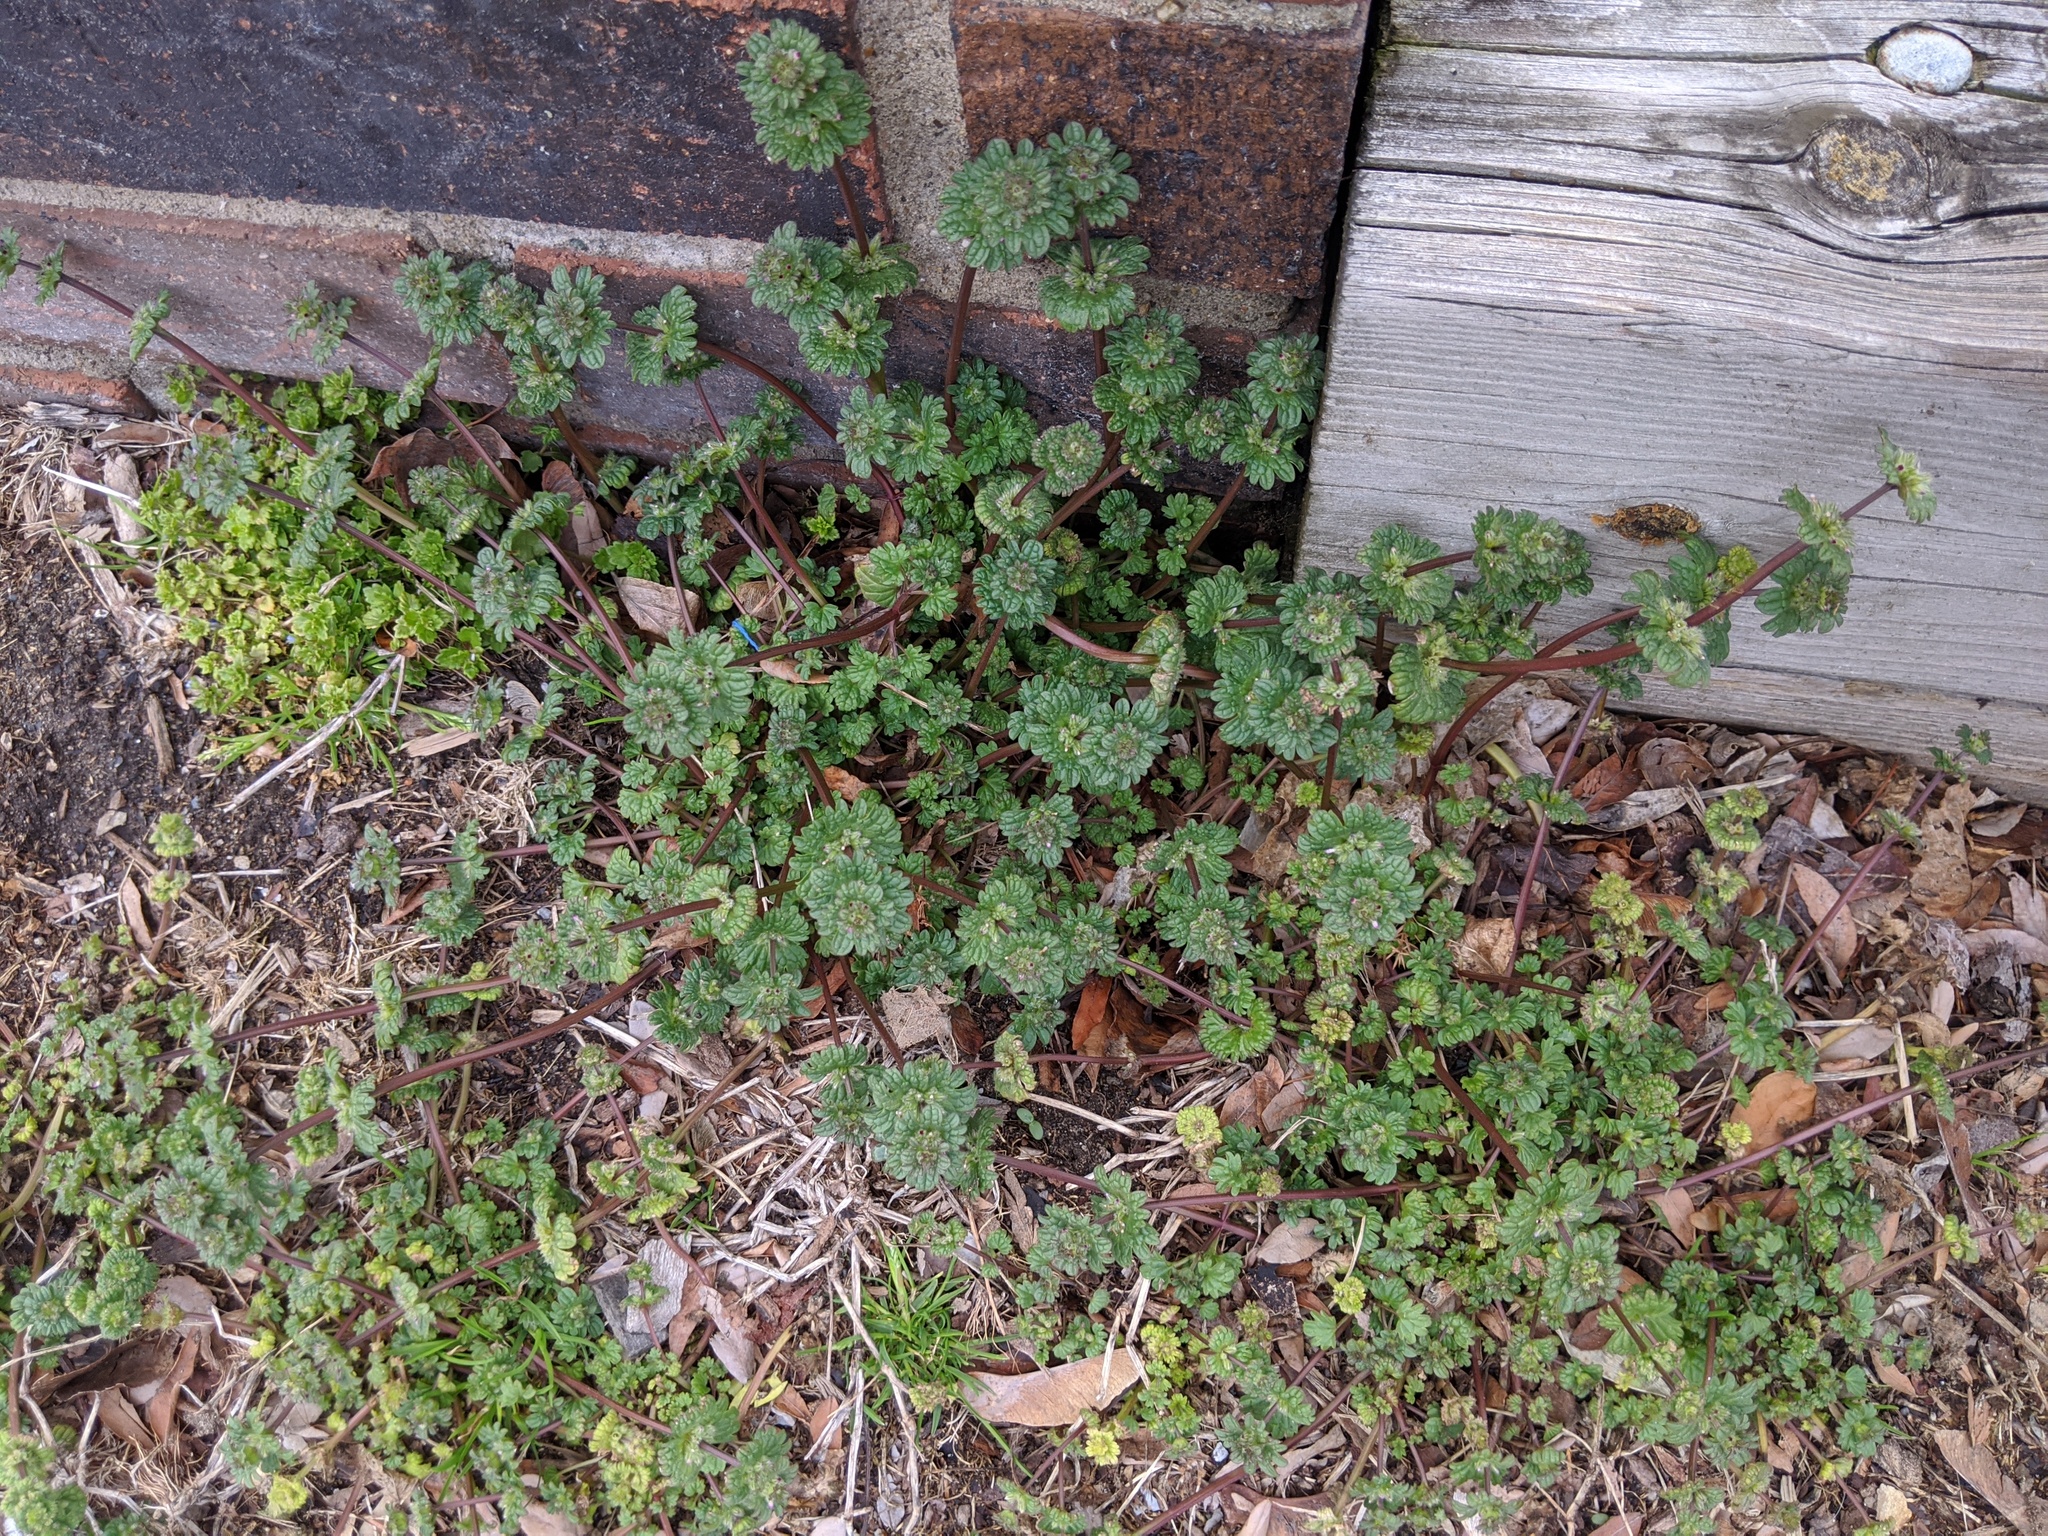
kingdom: Plantae
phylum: Tracheophyta
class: Magnoliopsida
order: Lamiales
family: Lamiaceae
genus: Lamium
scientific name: Lamium amplexicaule
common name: Henbit dead-nettle
